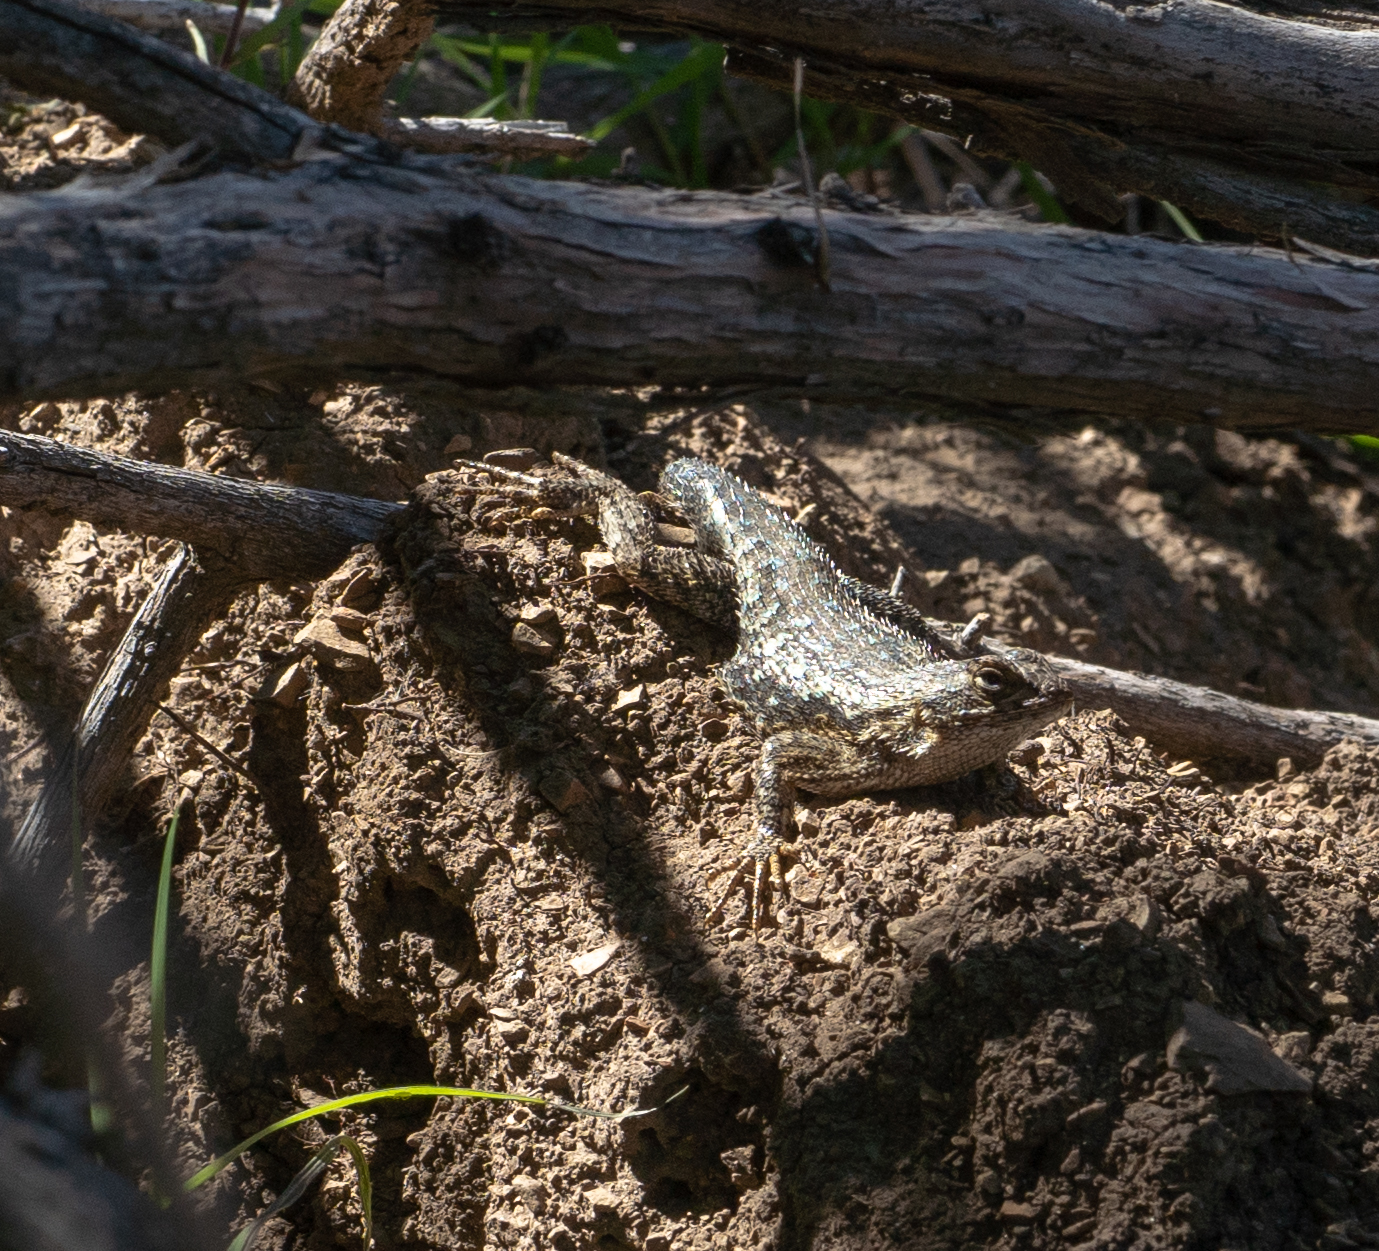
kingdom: Animalia
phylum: Chordata
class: Squamata
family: Phrynosomatidae
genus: Sceloporus
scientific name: Sceloporus occidentalis
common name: Western fence lizard
